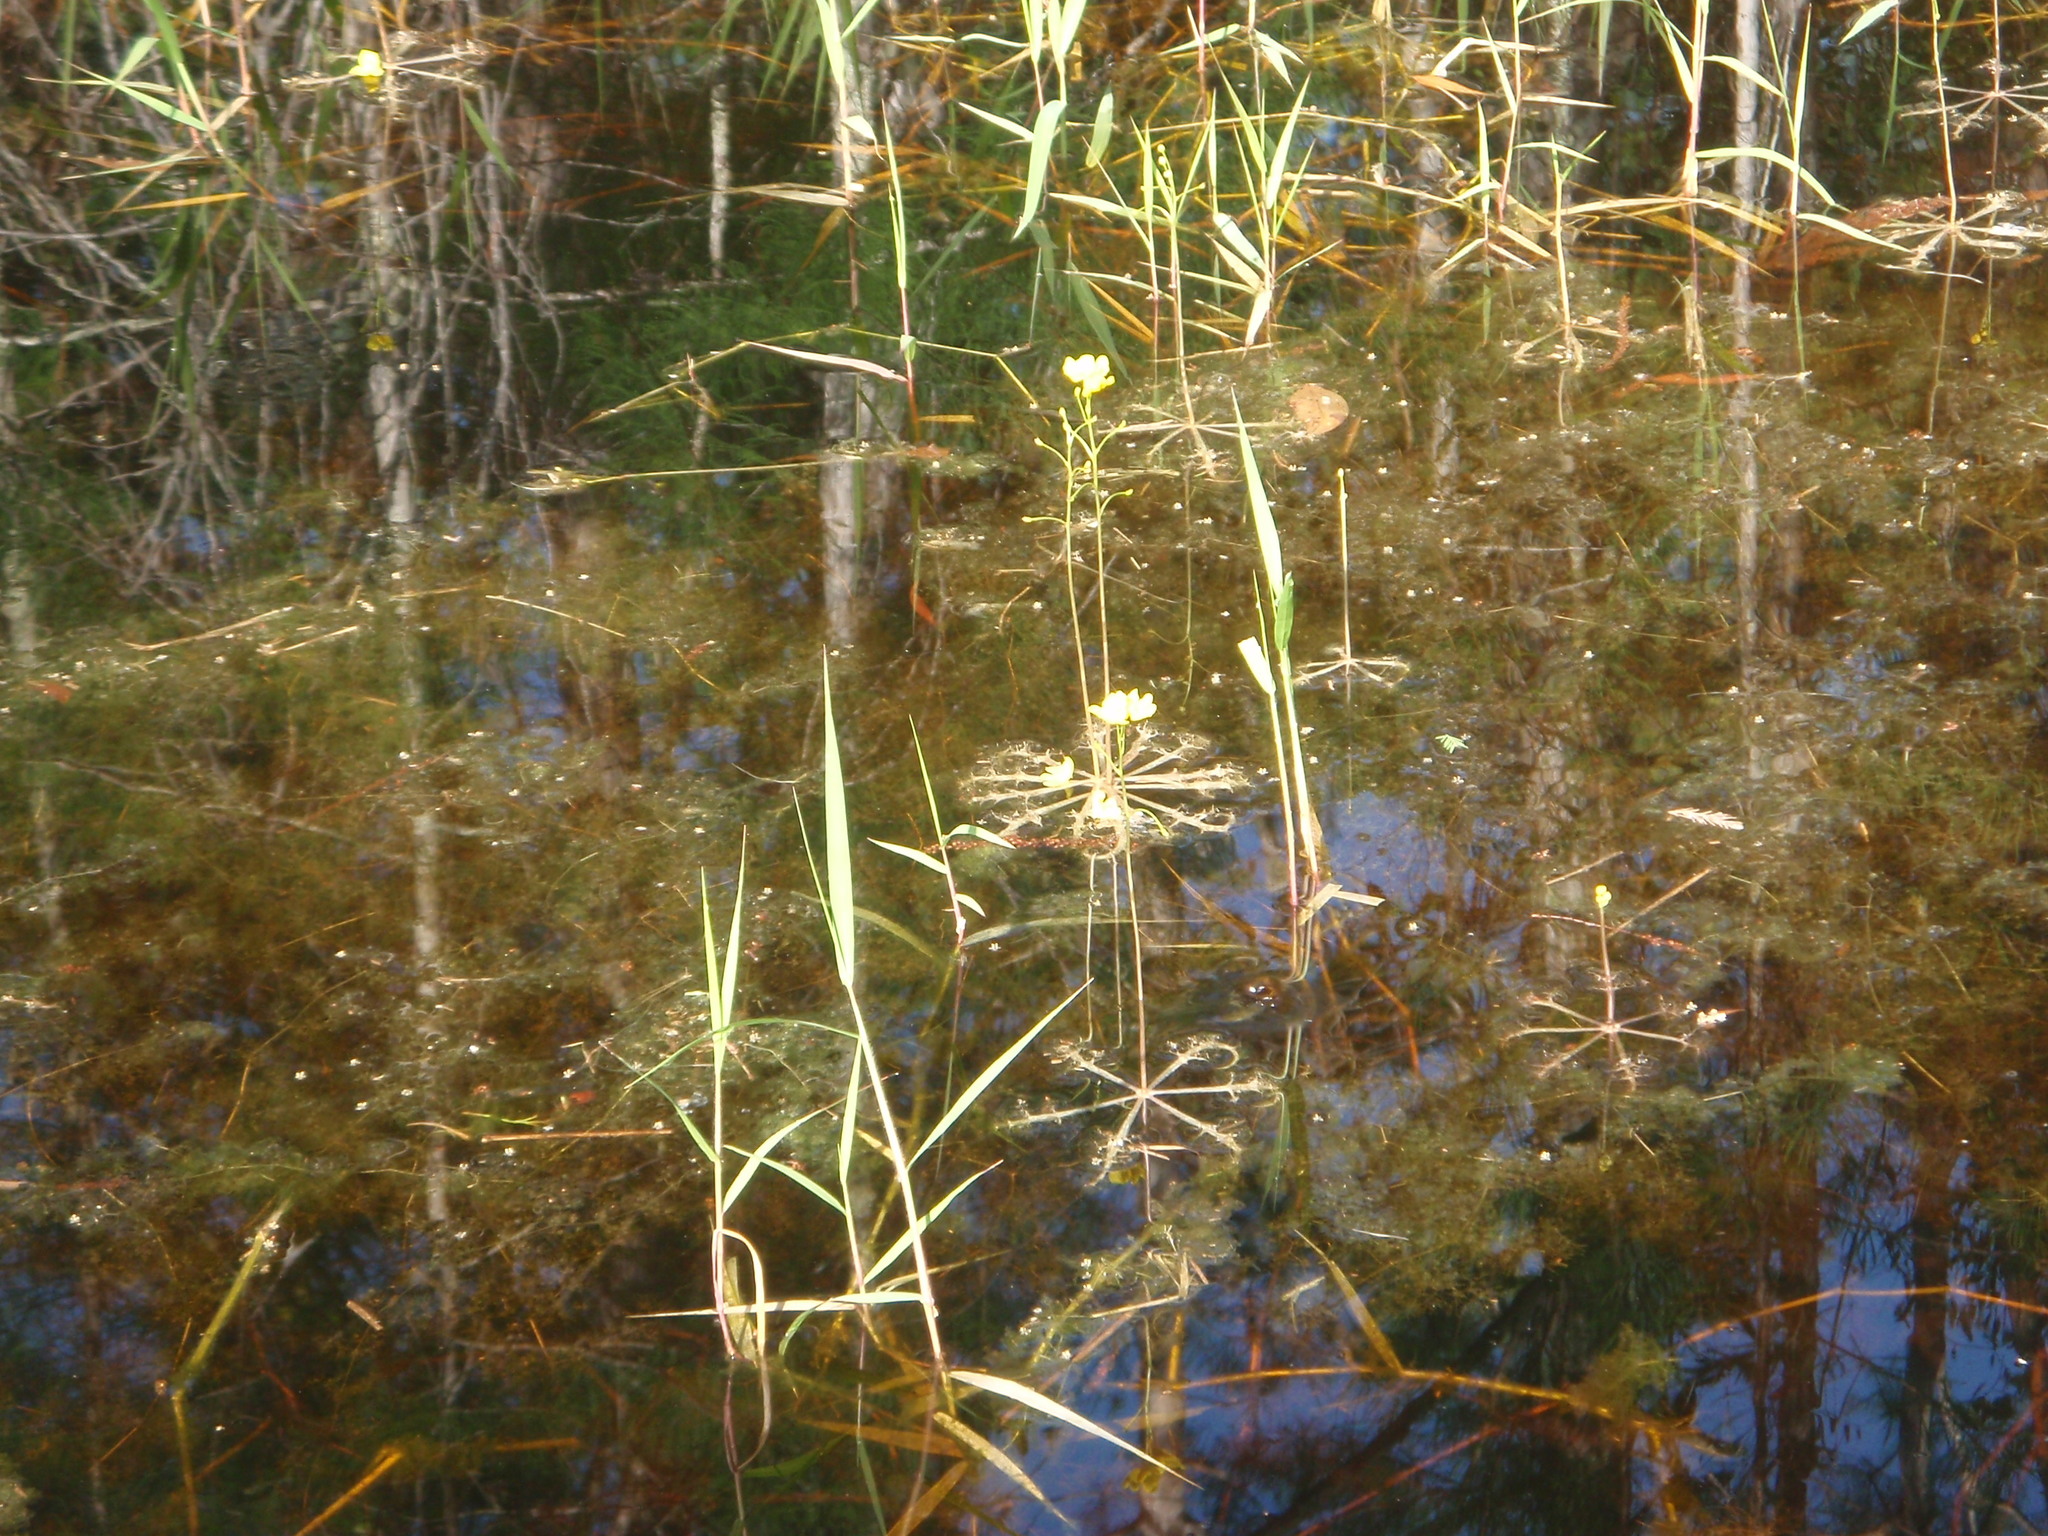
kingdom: Plantae
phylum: Tracheophyta
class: Magnoliopsida
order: Lamiales
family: Lentibulariaceae
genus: Utricularia
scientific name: Utricularia inflata
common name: Floating bladderwort
